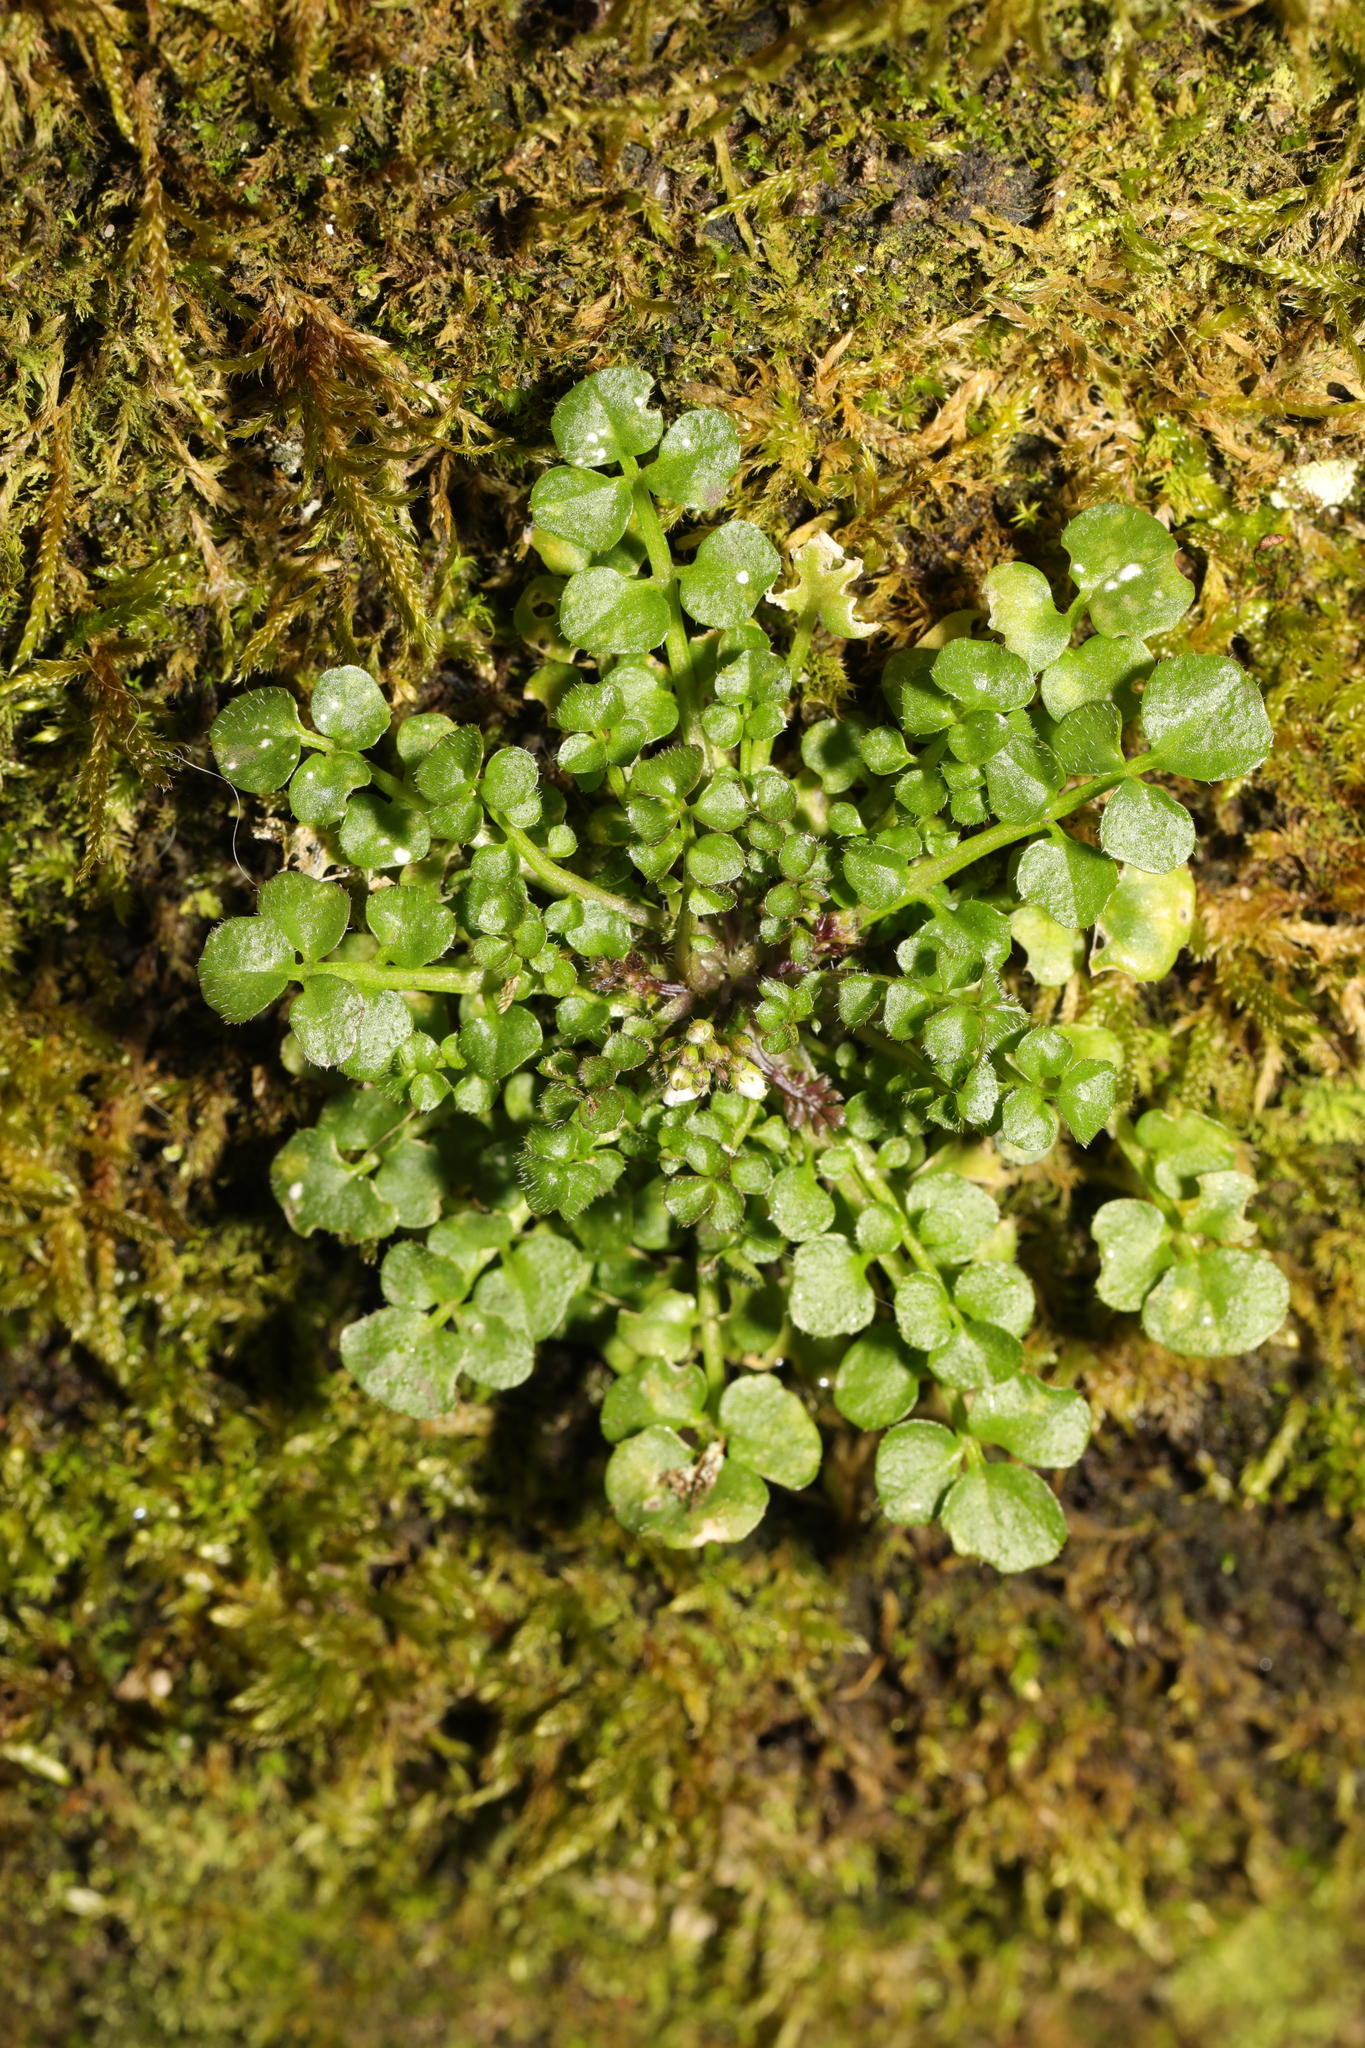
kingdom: Plantae
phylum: Tracheophyta
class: Magnoliopsida
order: Brassicales
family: Brassicaceae
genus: Cardamine
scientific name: Cardamine hirsuta
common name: Hairy bittercress
